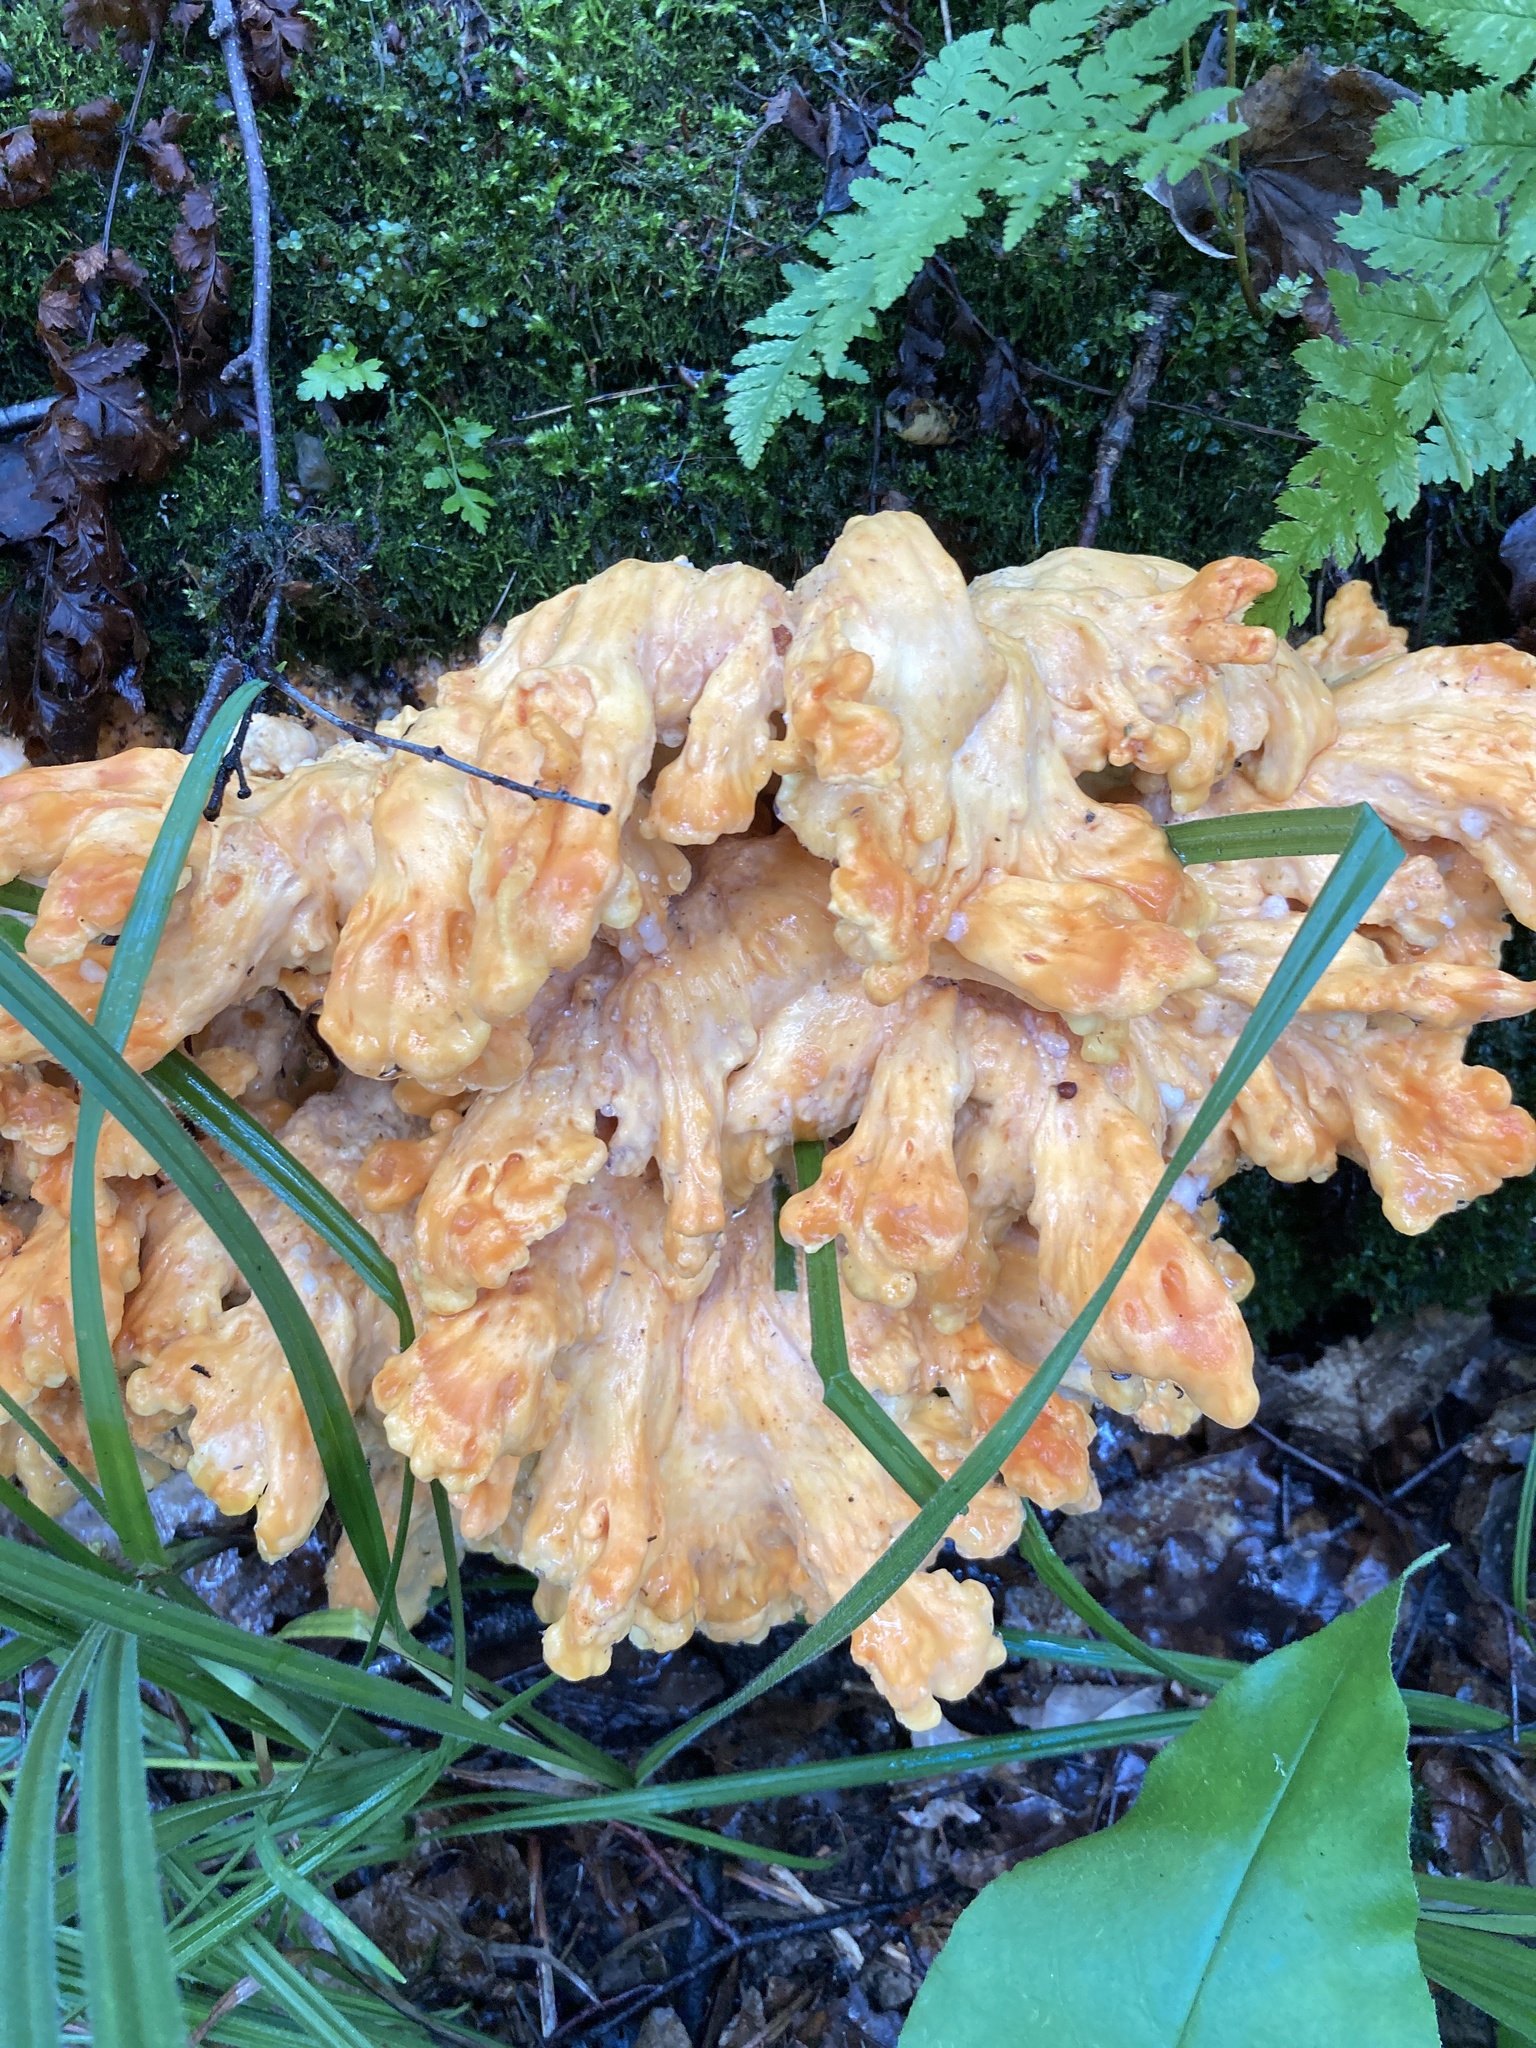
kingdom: Fungi
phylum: Basidiomycota
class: Agaricomycetes
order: Polyporales
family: Laetiporaceae
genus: Laetiporus
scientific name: Laetiporus sulphureus
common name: Chicken of the woods
